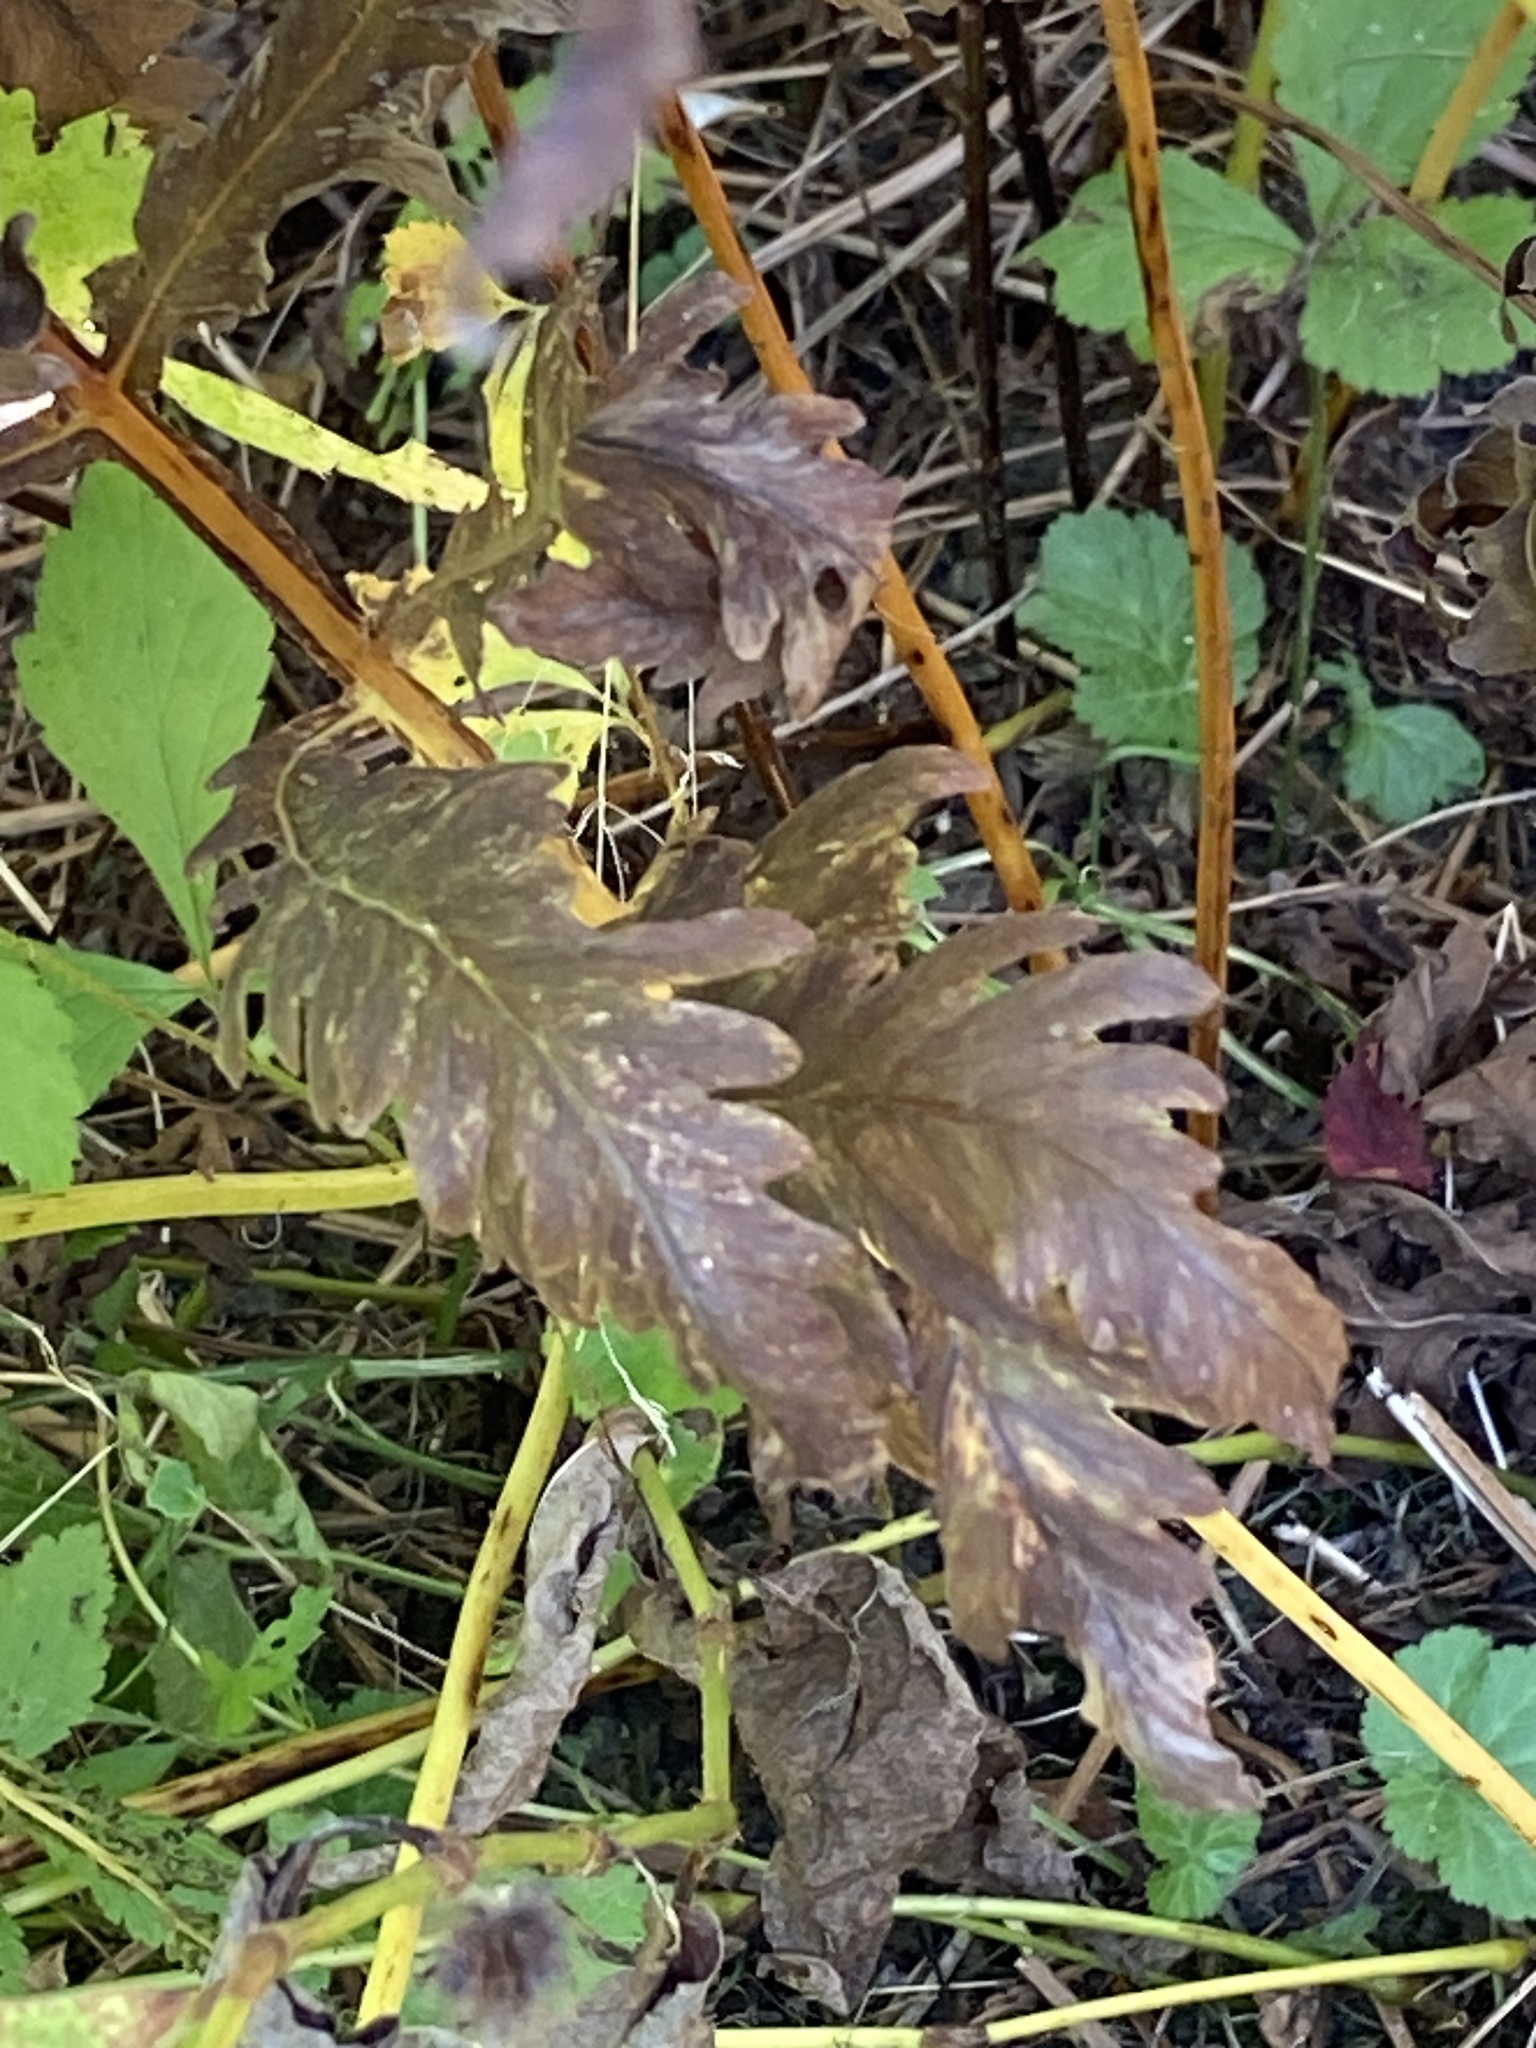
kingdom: Plantae
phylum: Tracheophyta
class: Polypodiopsida
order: Polypodiales
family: Onocleaceae
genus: Onoclea
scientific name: Onoclea sensibilis
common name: Sensitive fern
